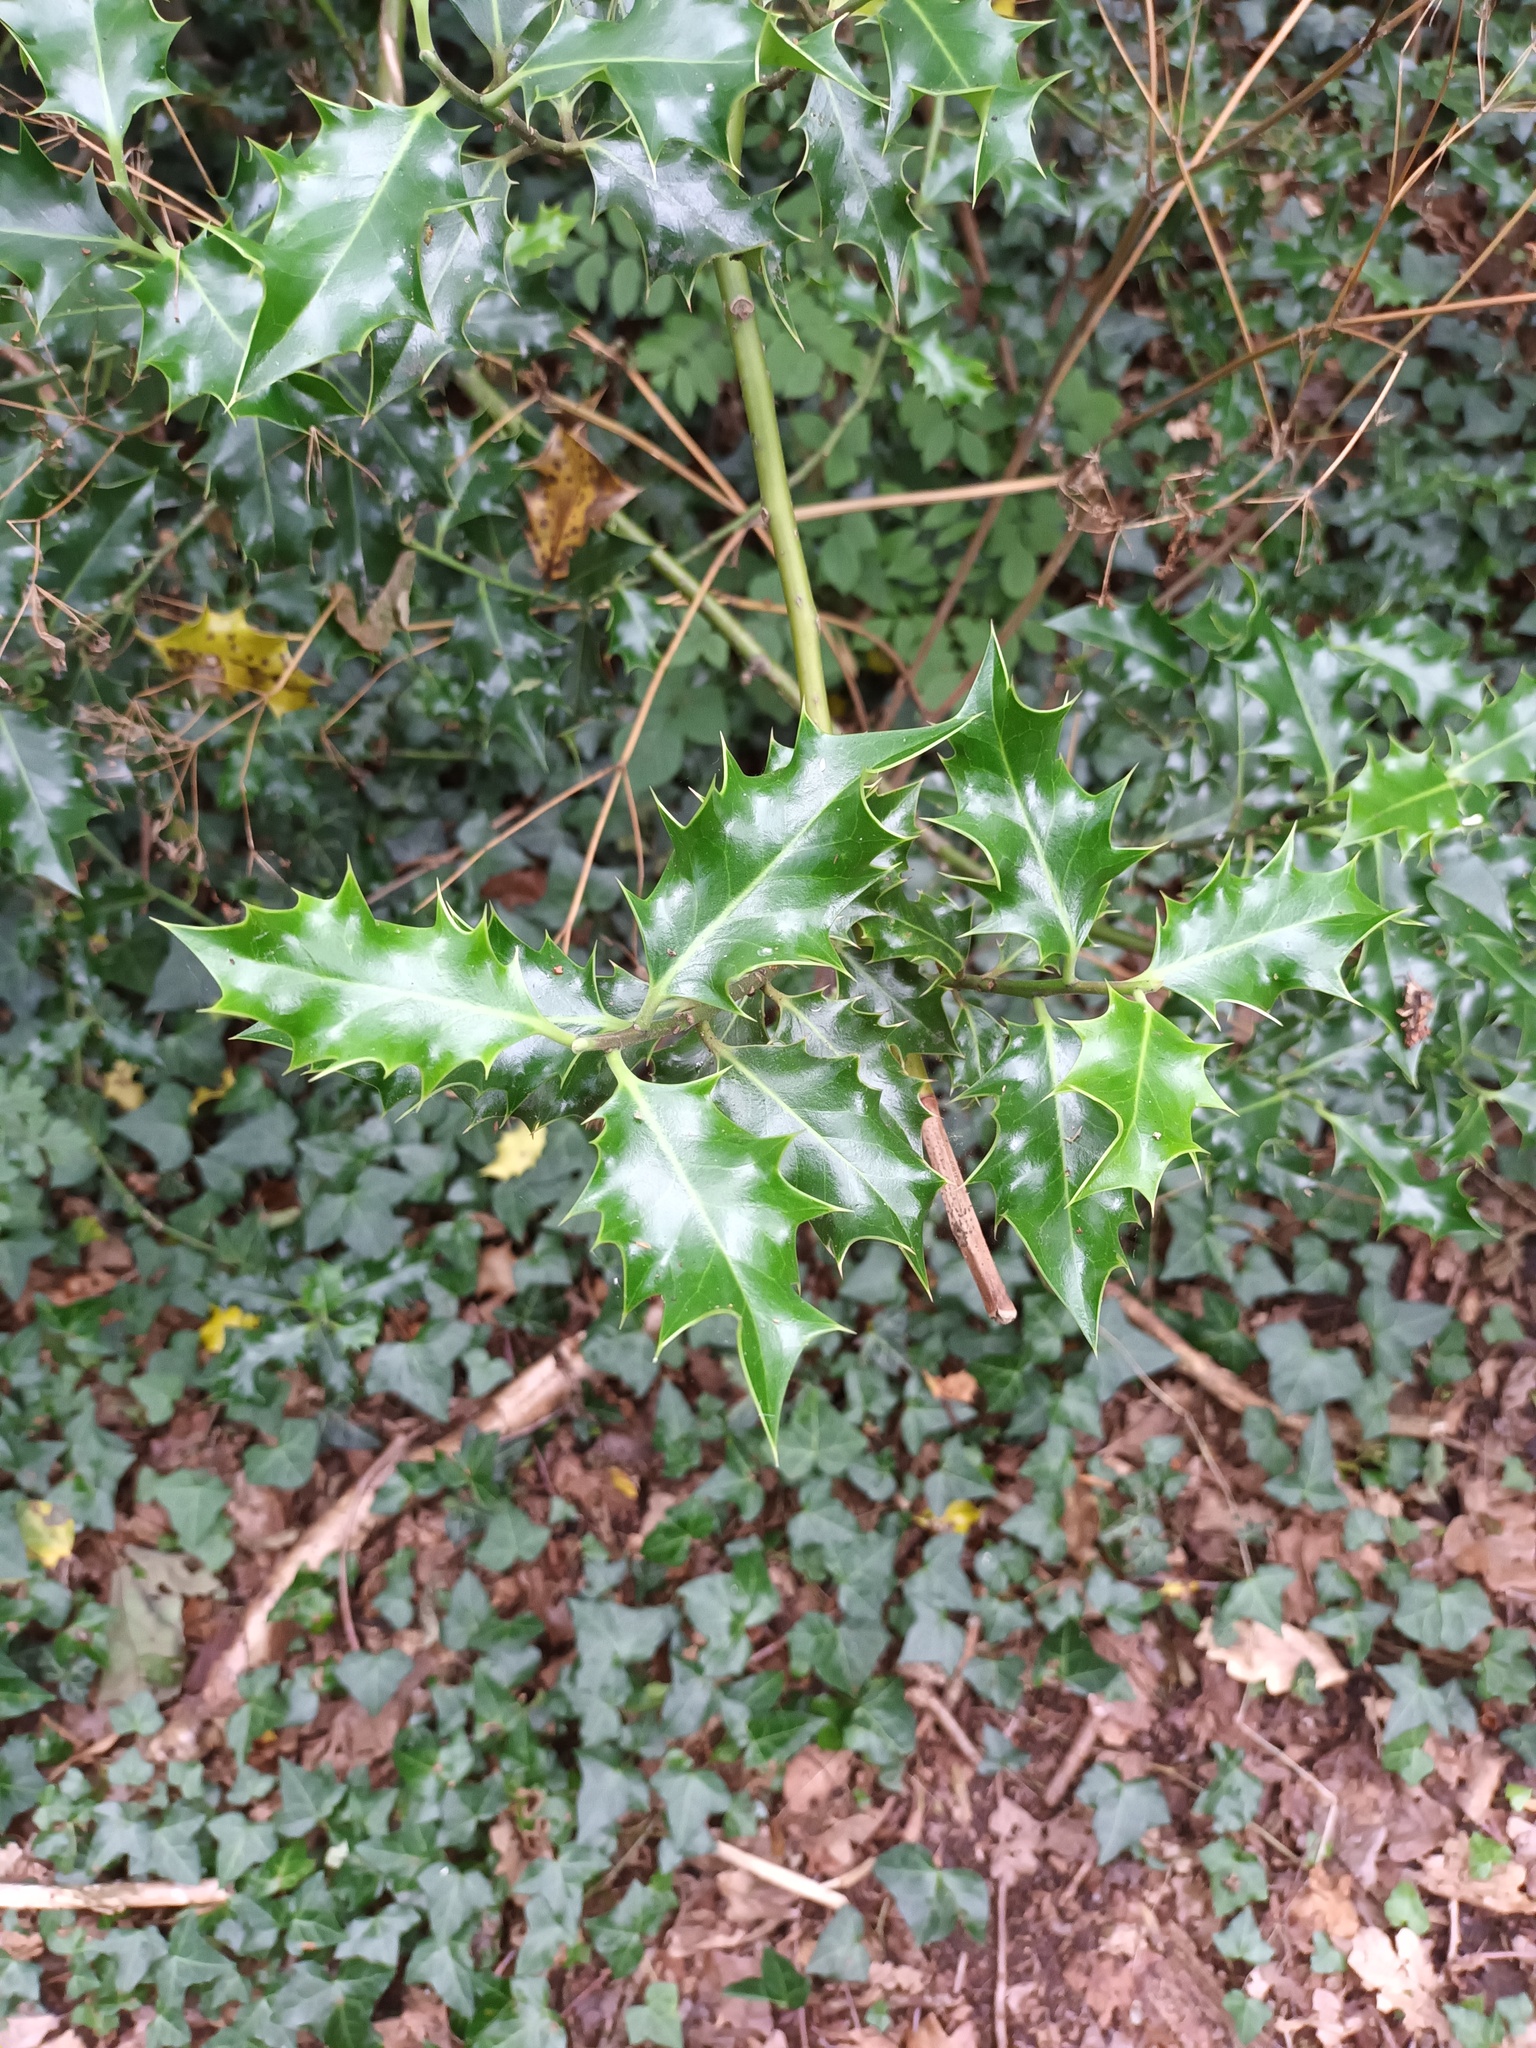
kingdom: Plantae
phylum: Tracheophyta
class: Magnoliopsida
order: Aquifoliales
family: Aquifoliaceae
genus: Ilex
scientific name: Ilex aquifolium
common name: English holly
